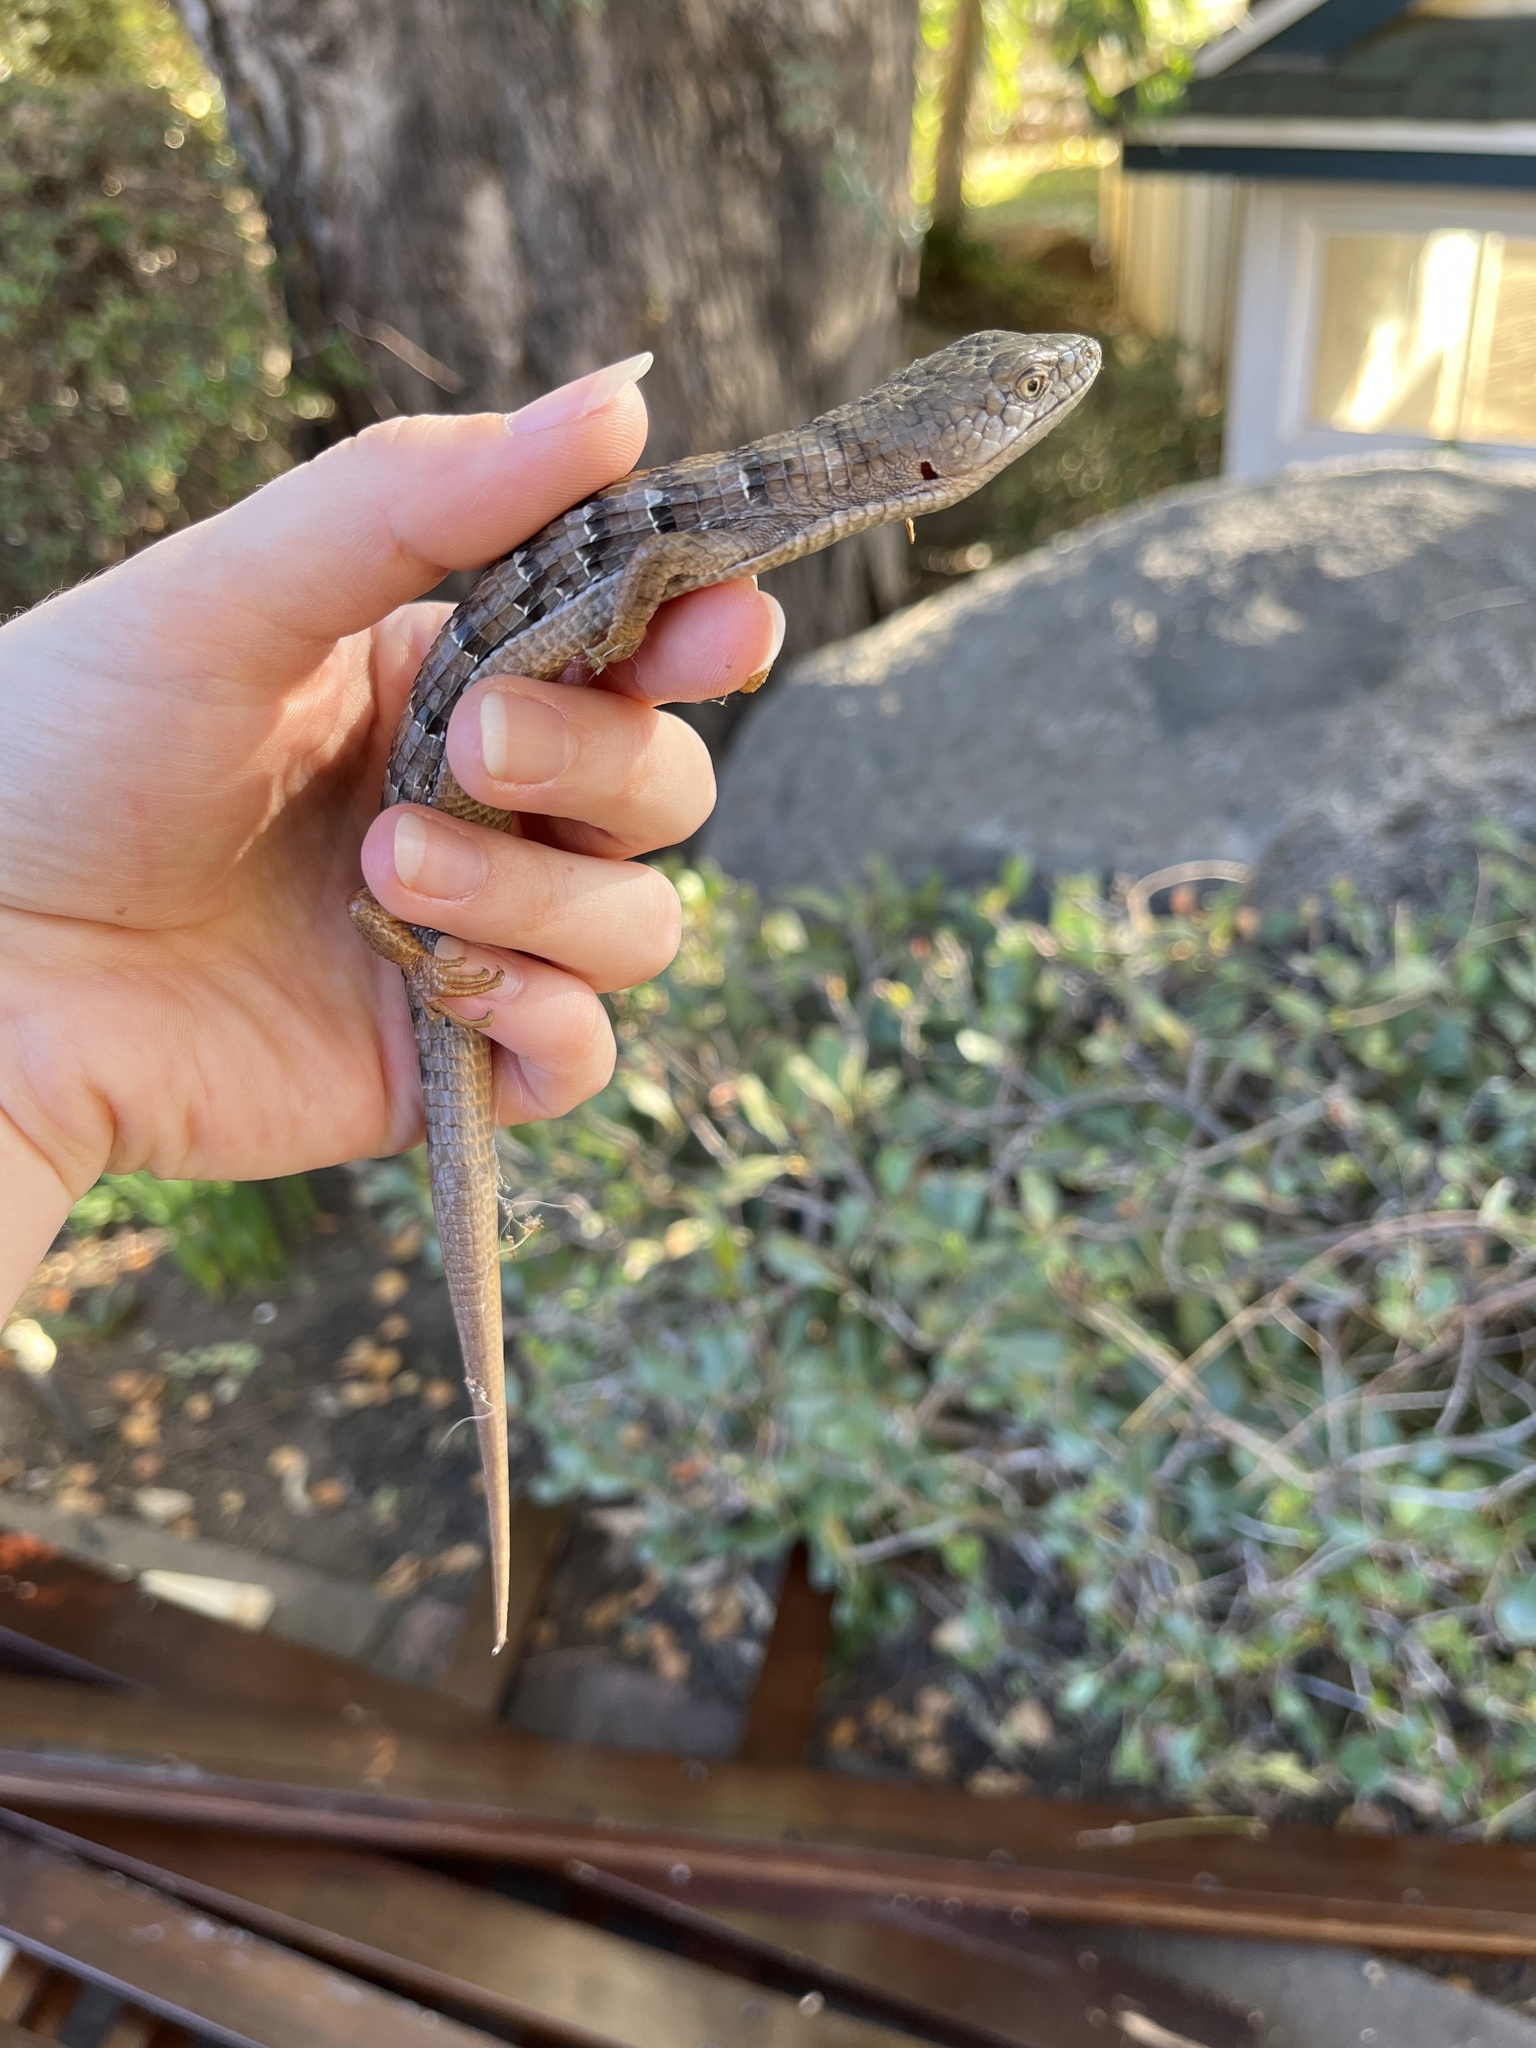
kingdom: Animalia
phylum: Chordata
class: Squamata
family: Anguidae
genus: Elgaria
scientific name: Elgaria multicarinata
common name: Southern alligator lizard
